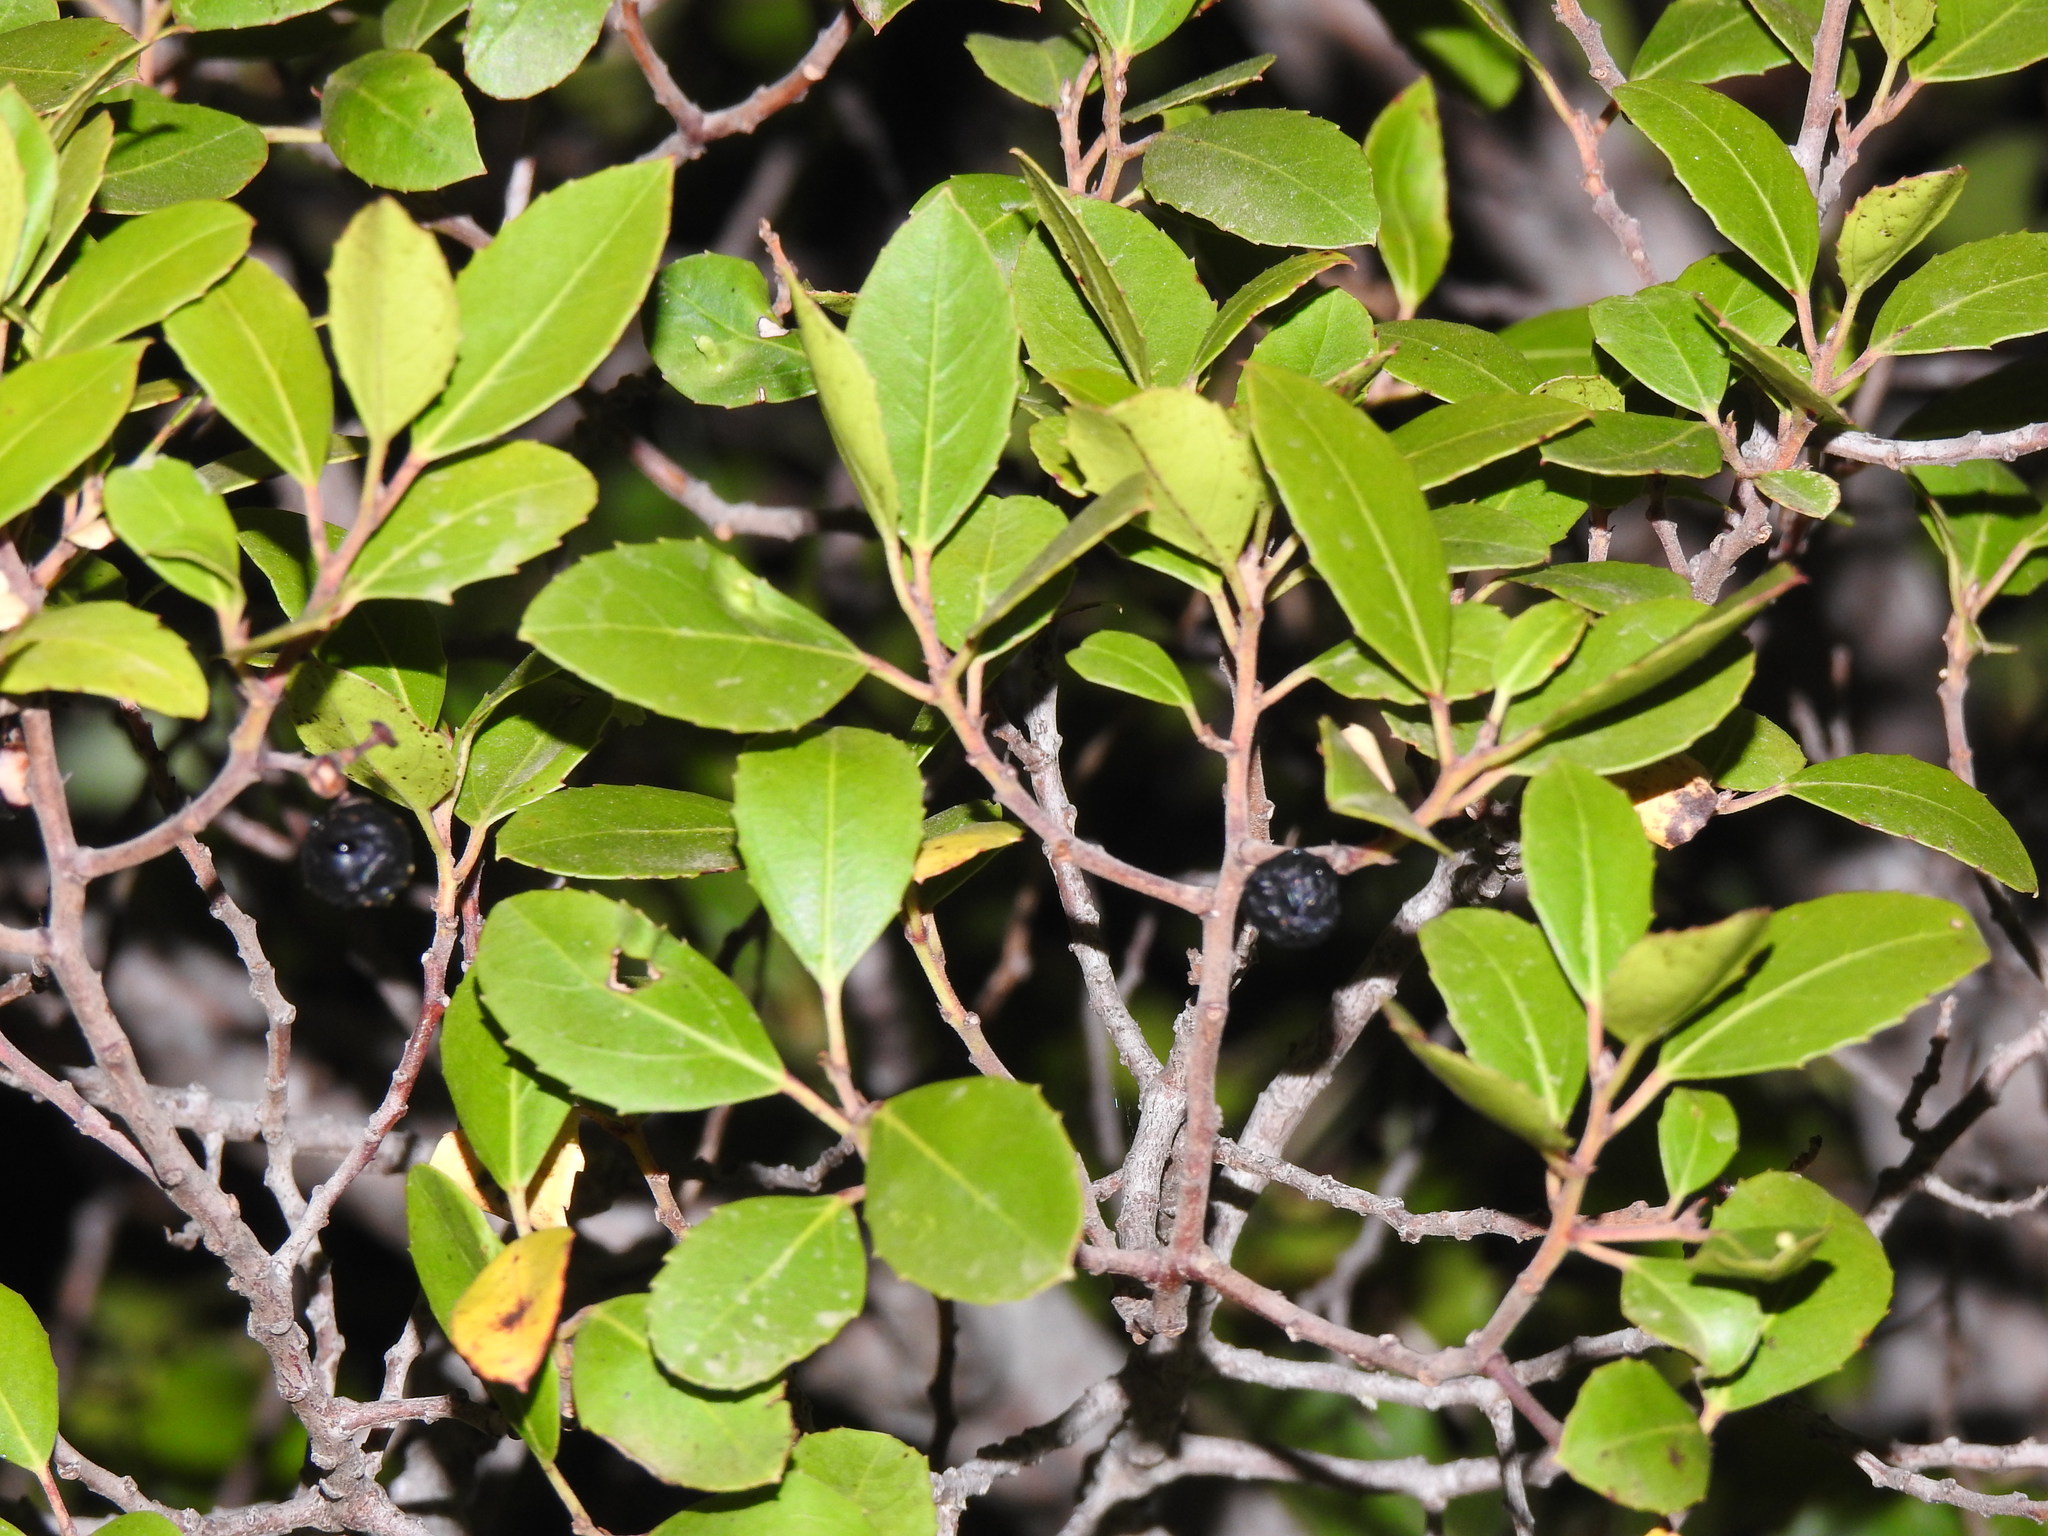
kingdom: Plantae
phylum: Tracheophyta
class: Magnoliopsida
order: Rosales
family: Rhamnaceae
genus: Rhamnus
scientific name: Rhamnus alaternus
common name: Mediterranean buckthorn
